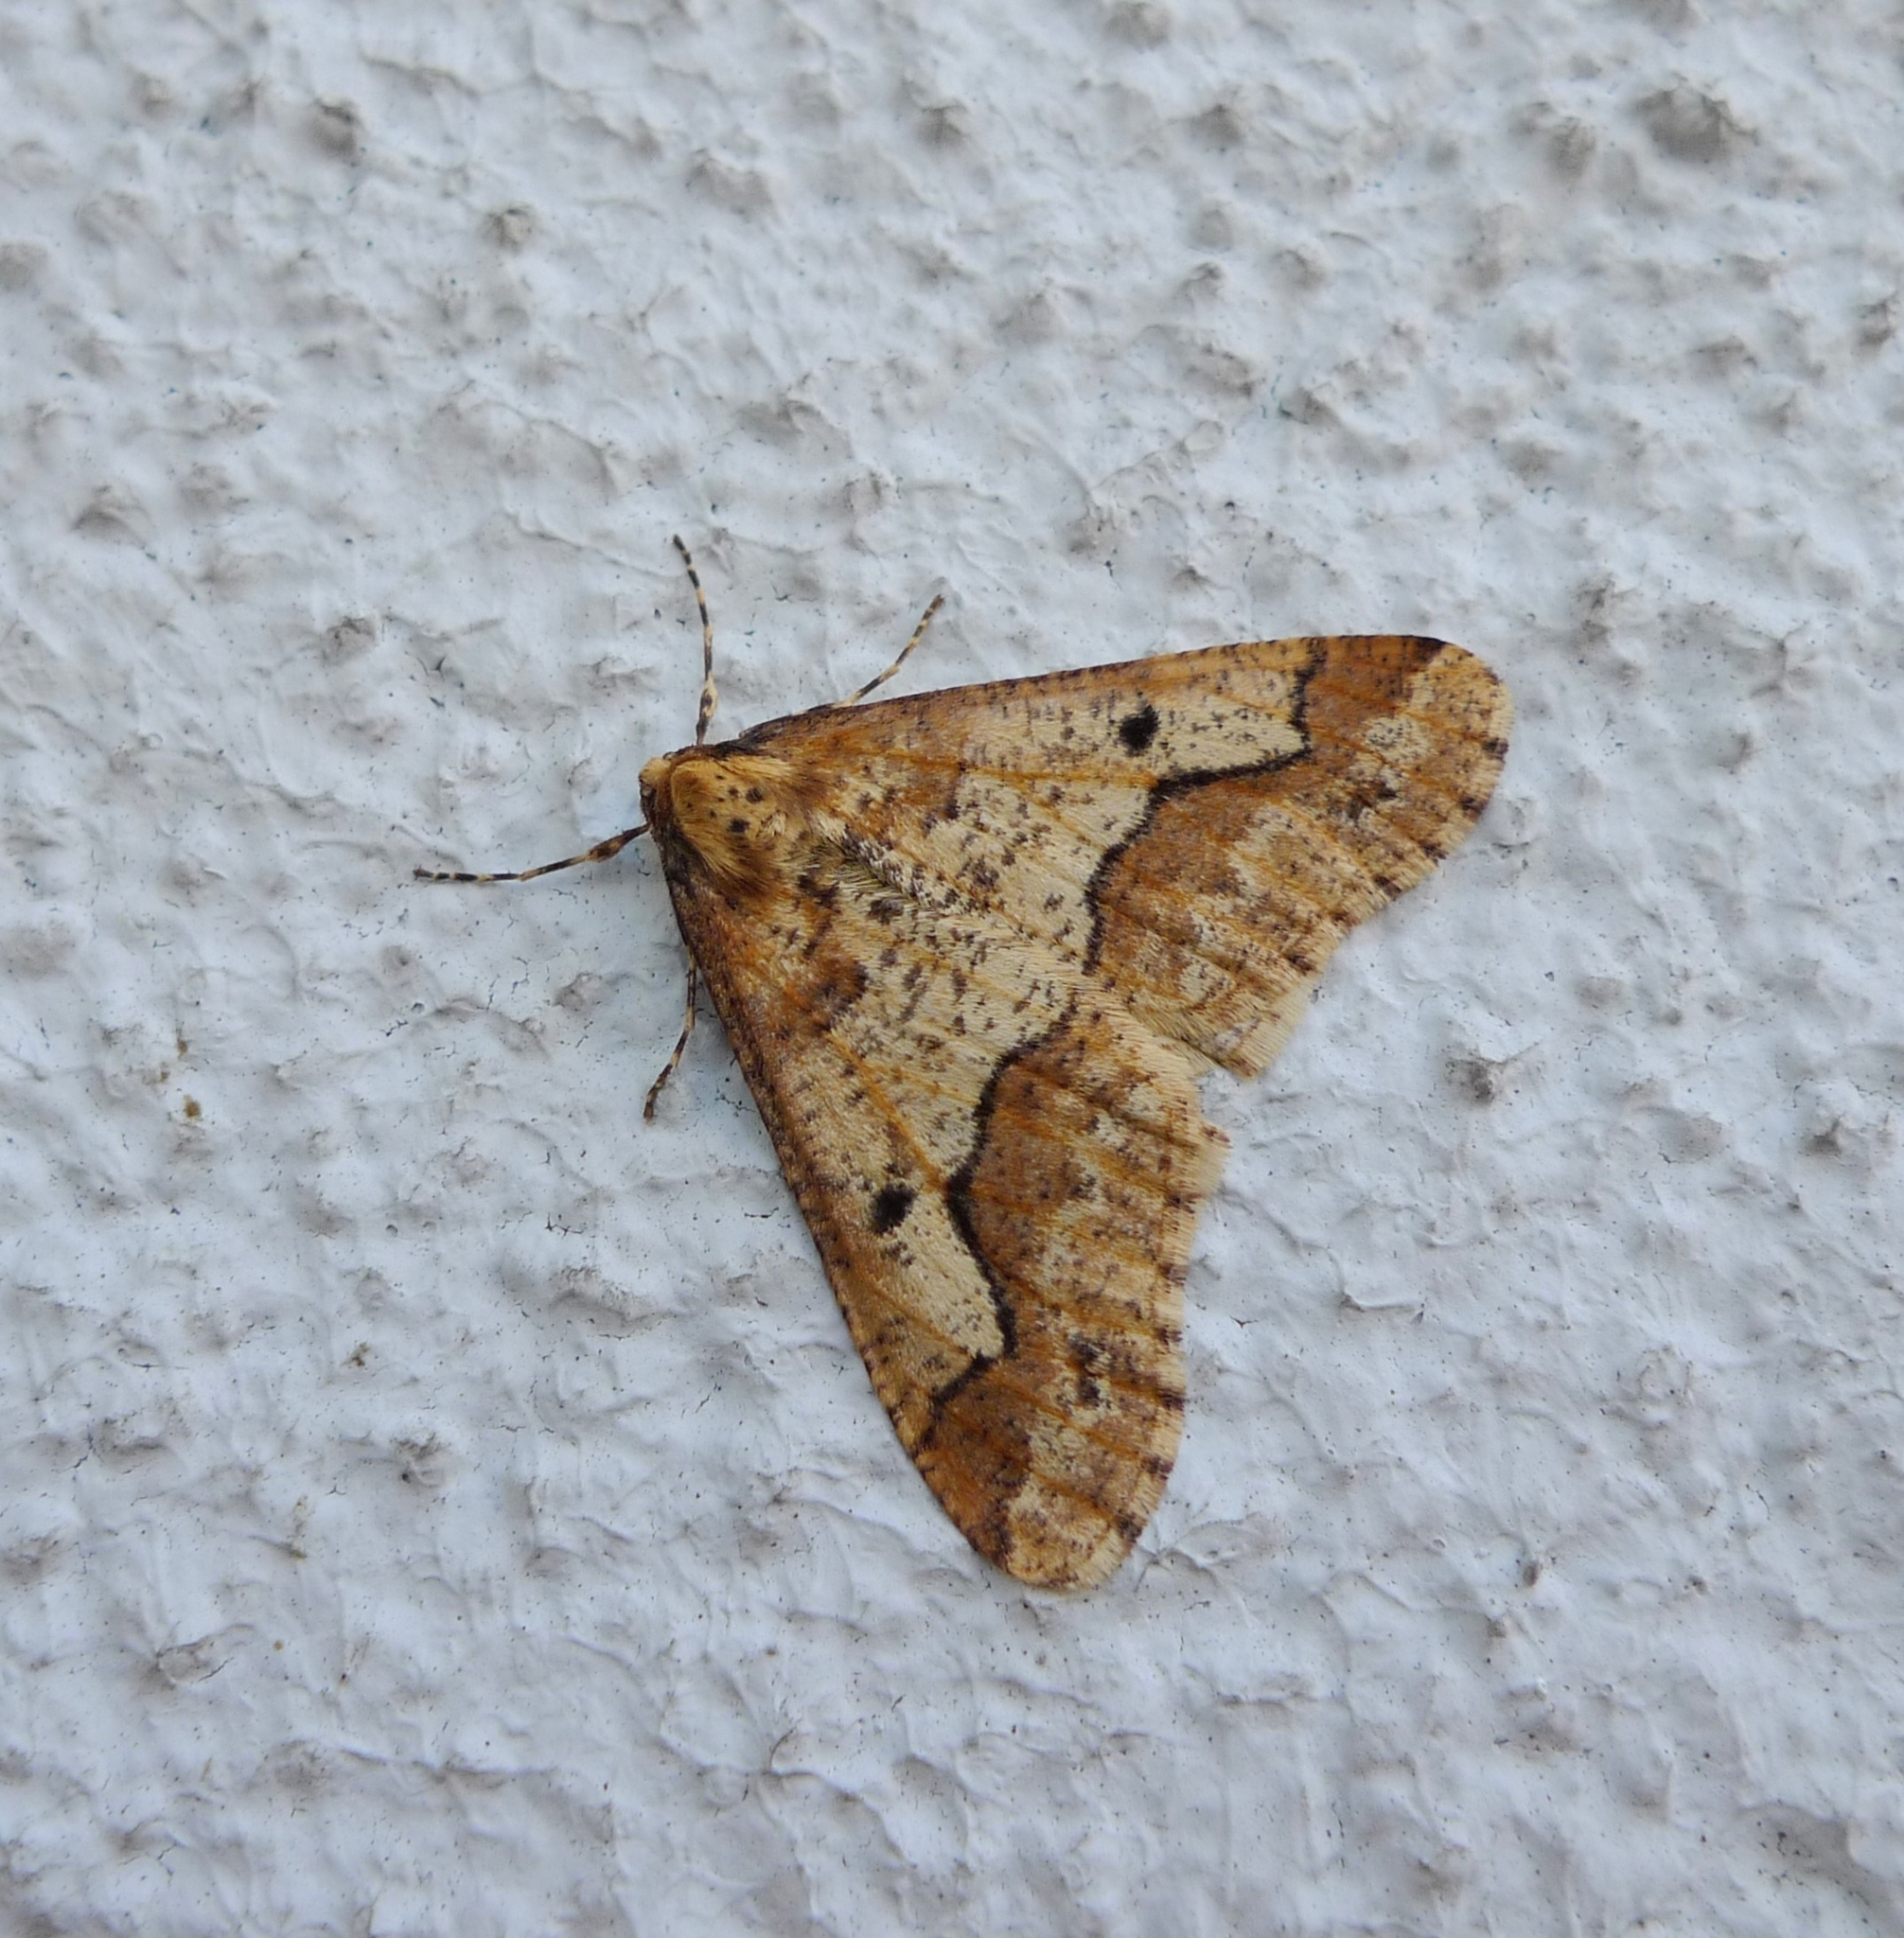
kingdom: Animalia
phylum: Arthropoda
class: Insecta
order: Lepidoptera
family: Geometridae
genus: Erannis
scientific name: Erannis defoliaria
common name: Mottled umber
